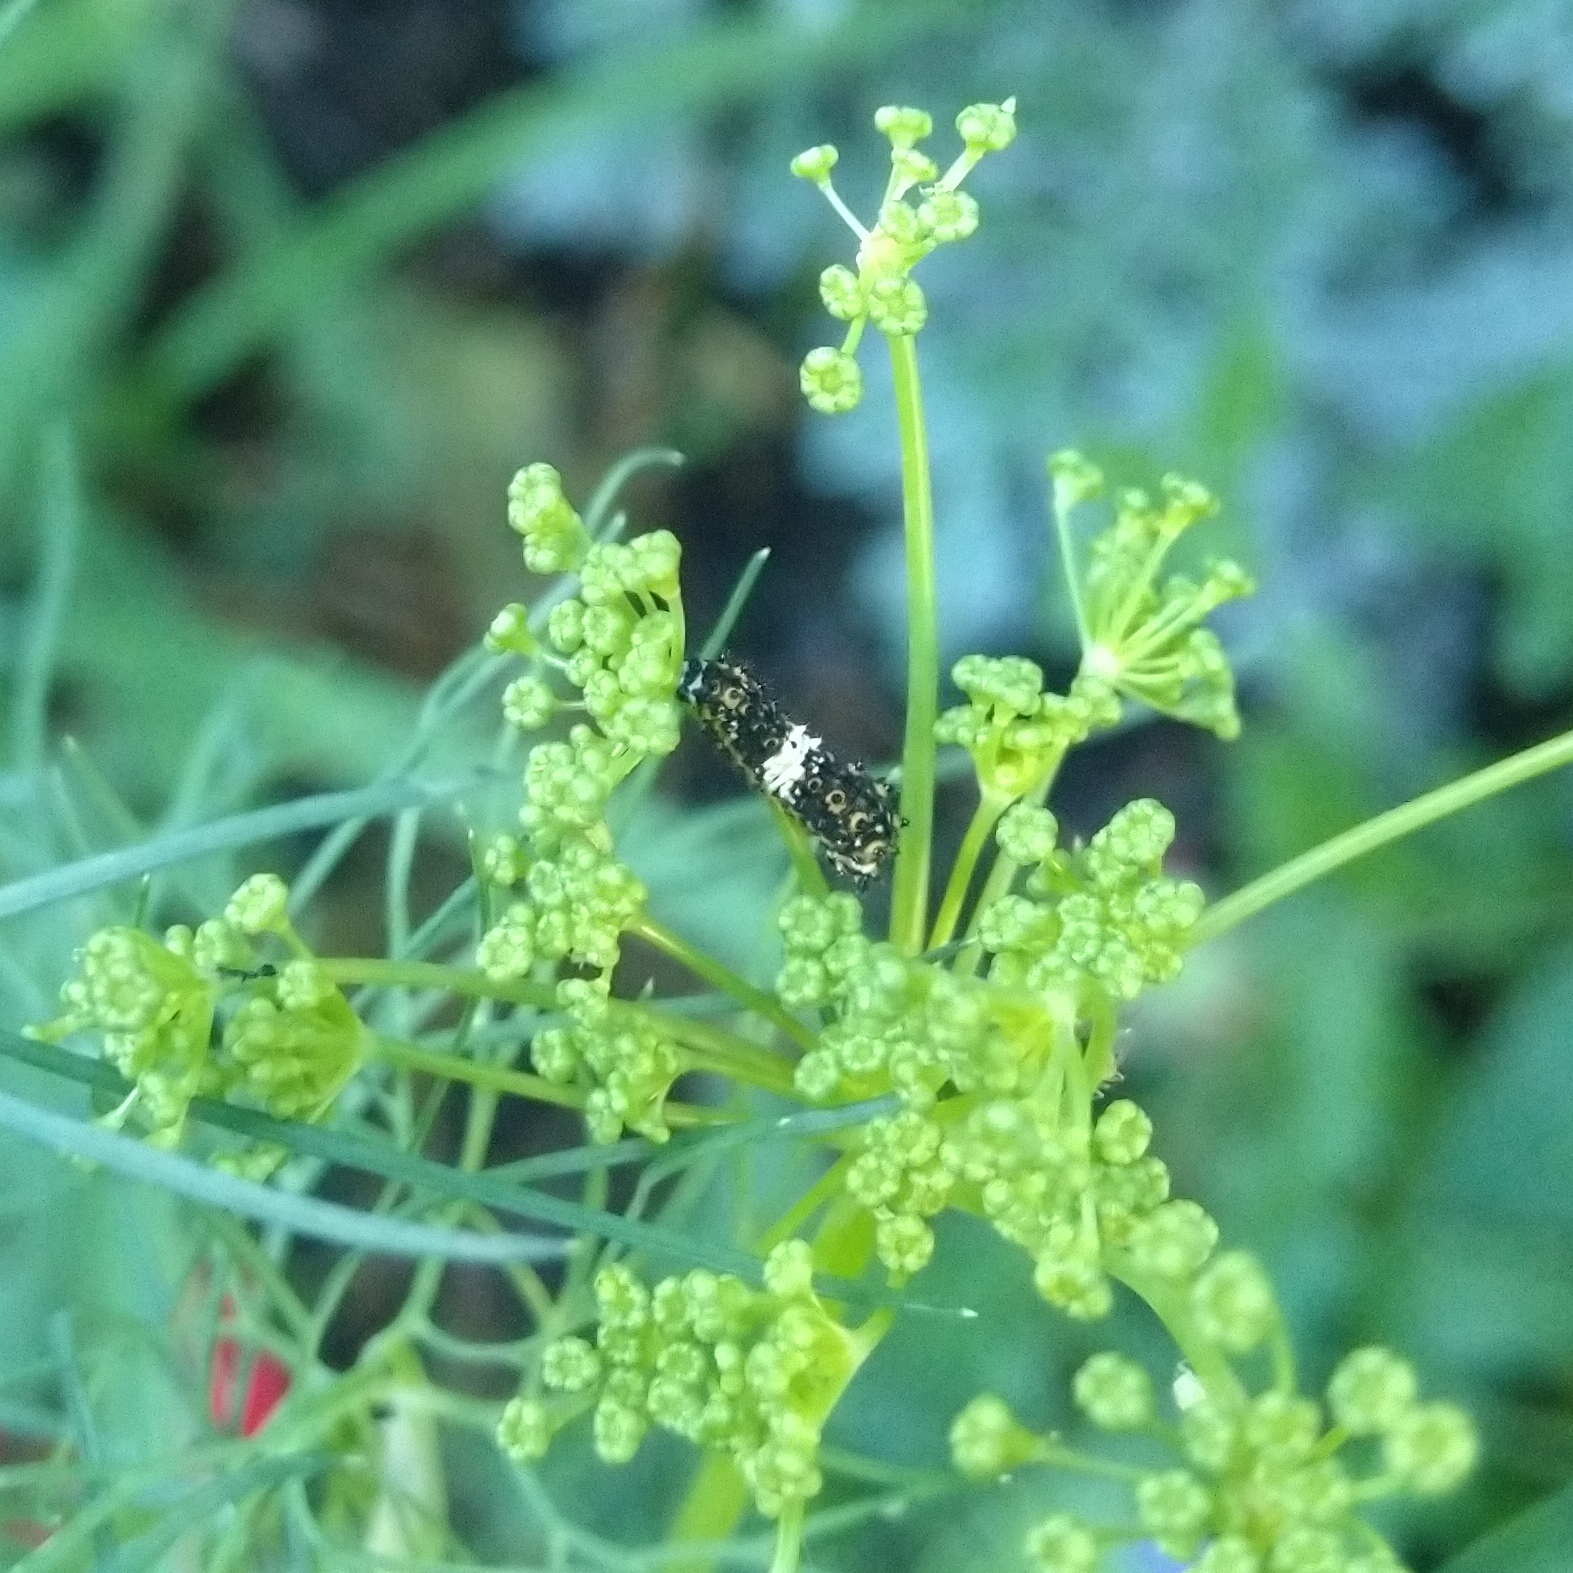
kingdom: Animalia
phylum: Arthropoda
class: Insecta
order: Lepidoptera
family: Papilionidae
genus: Papilio
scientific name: Papilio polyxenes
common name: Black swallowtail
